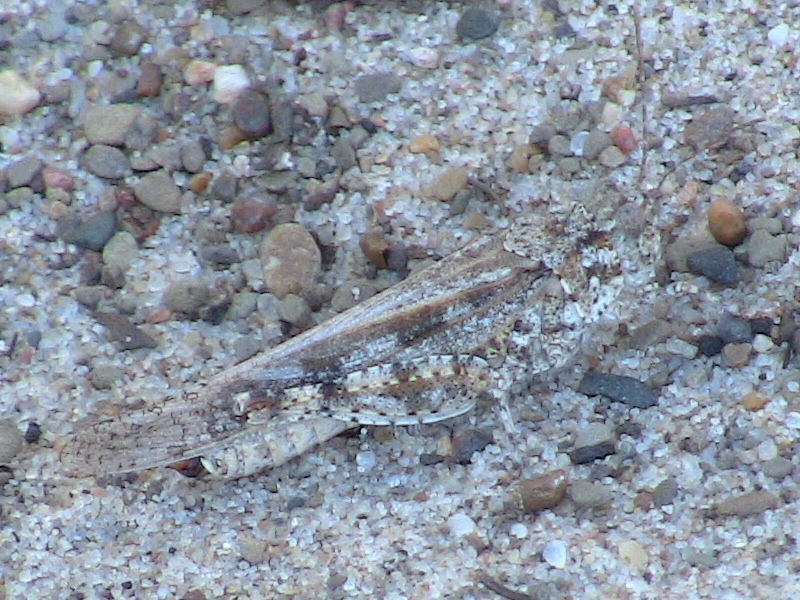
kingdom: Animalia
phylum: Arthropoda
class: Insecta
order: Orthoptera
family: Acrididae
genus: Trimerotropis
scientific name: Trimerotropis maritima
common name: Seaside locust
